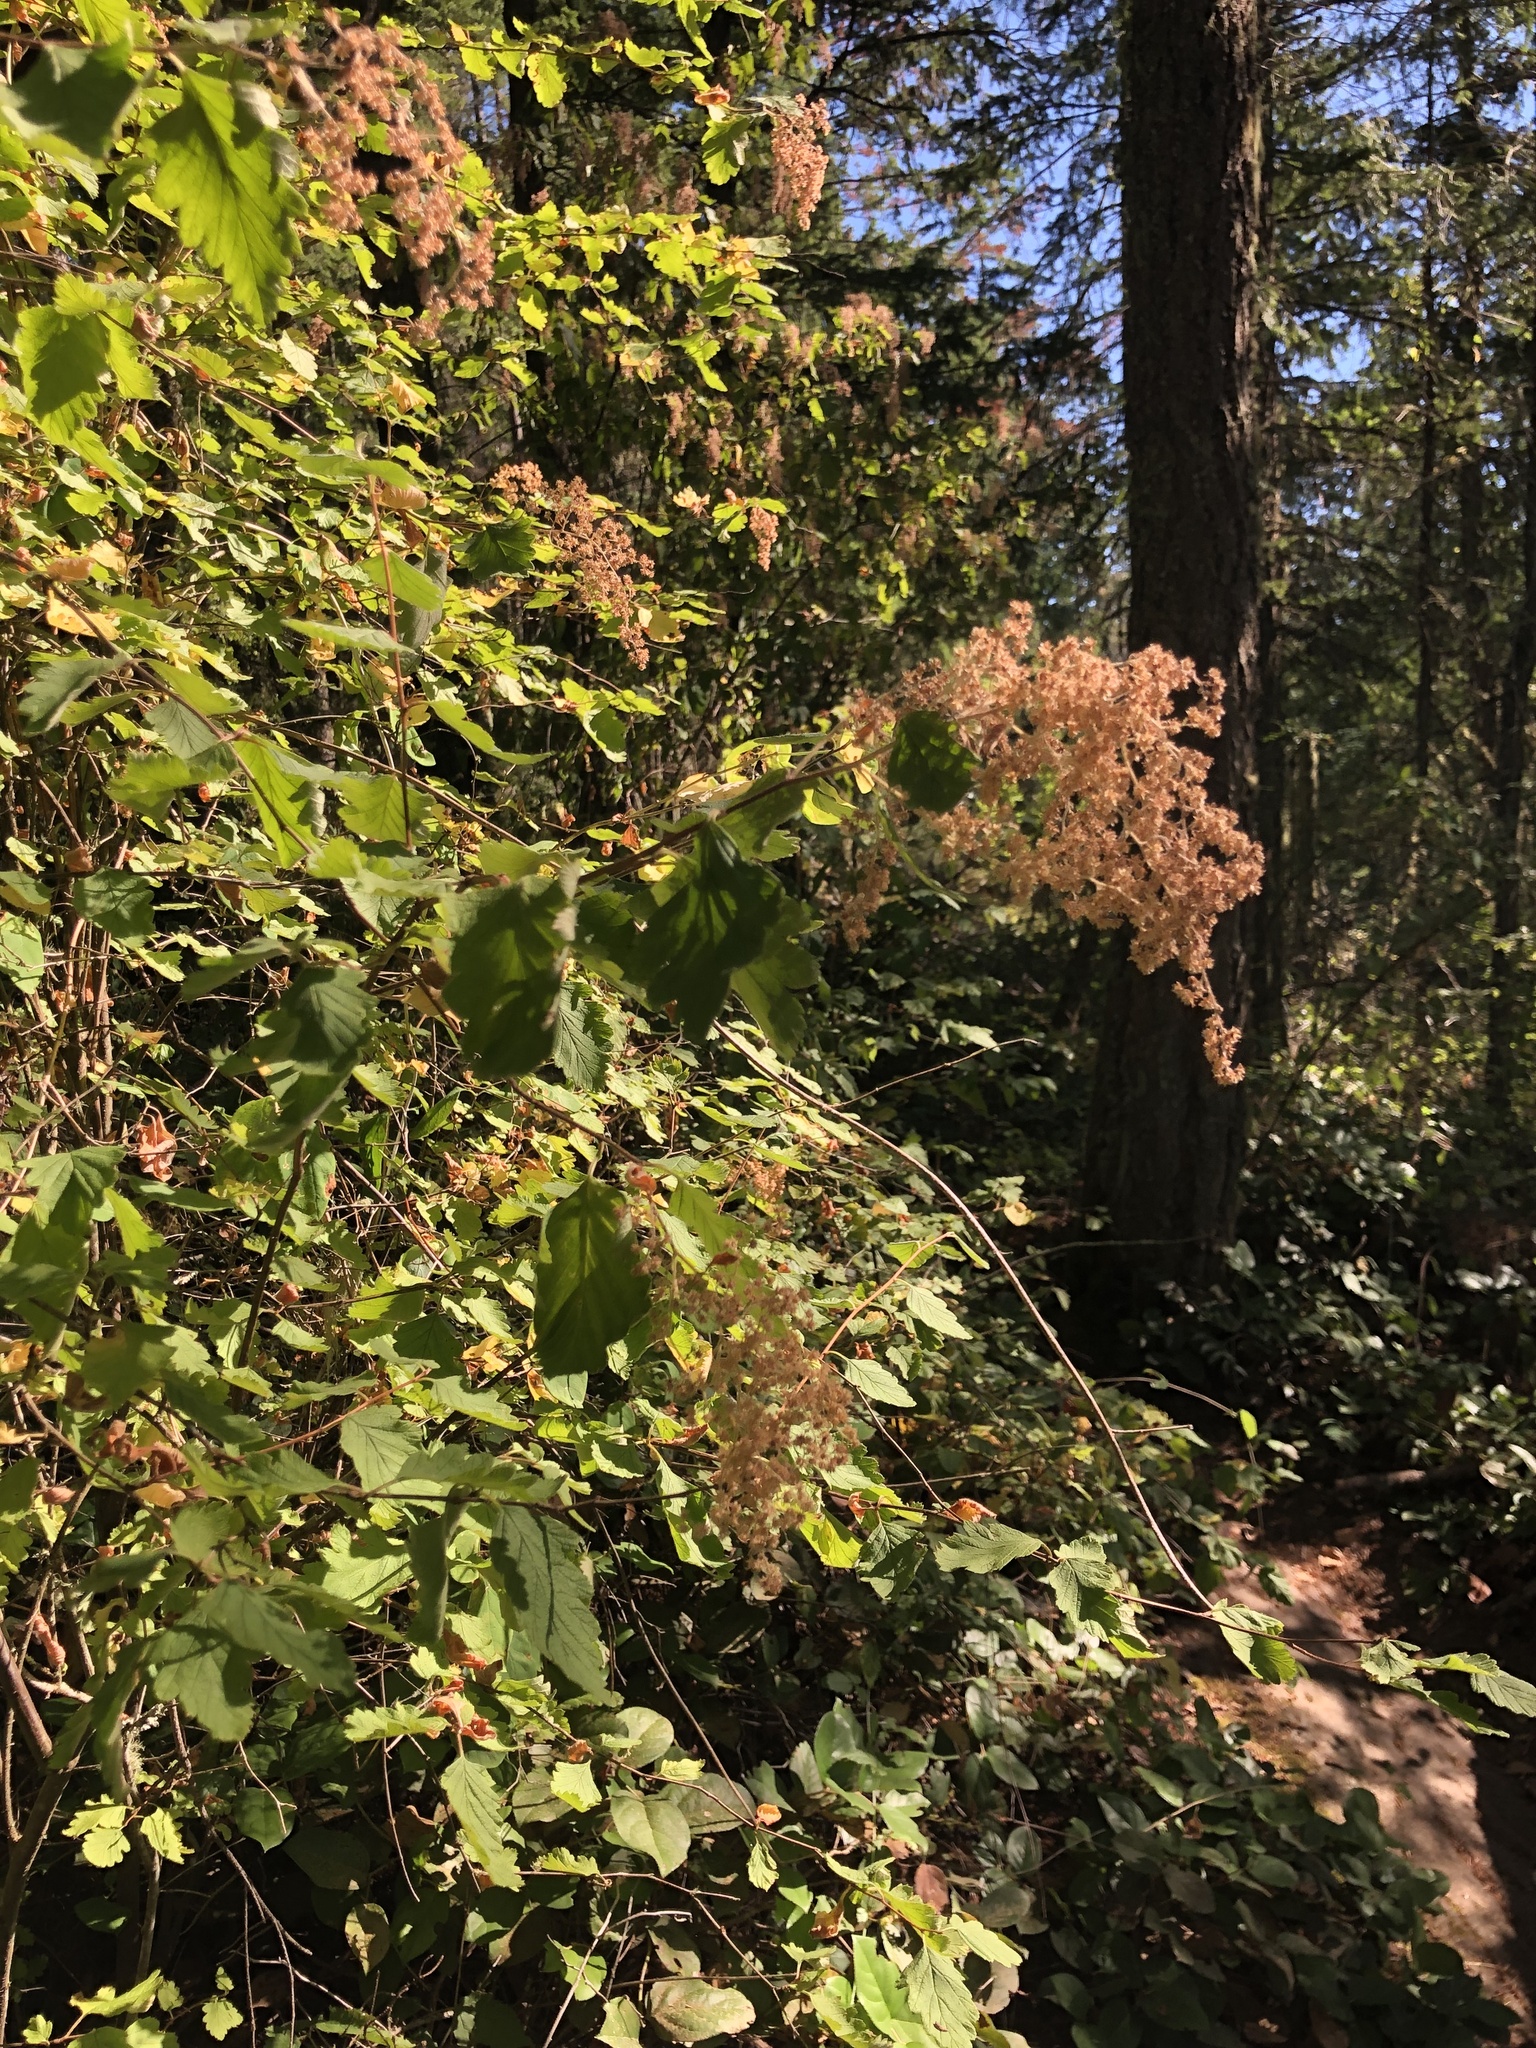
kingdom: Plantae
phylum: Tracheophyta
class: Magnoliopsida
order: Rosales
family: Rosaceae
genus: Holodiscus
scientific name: Holodiscus discolor
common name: Oceanspray
